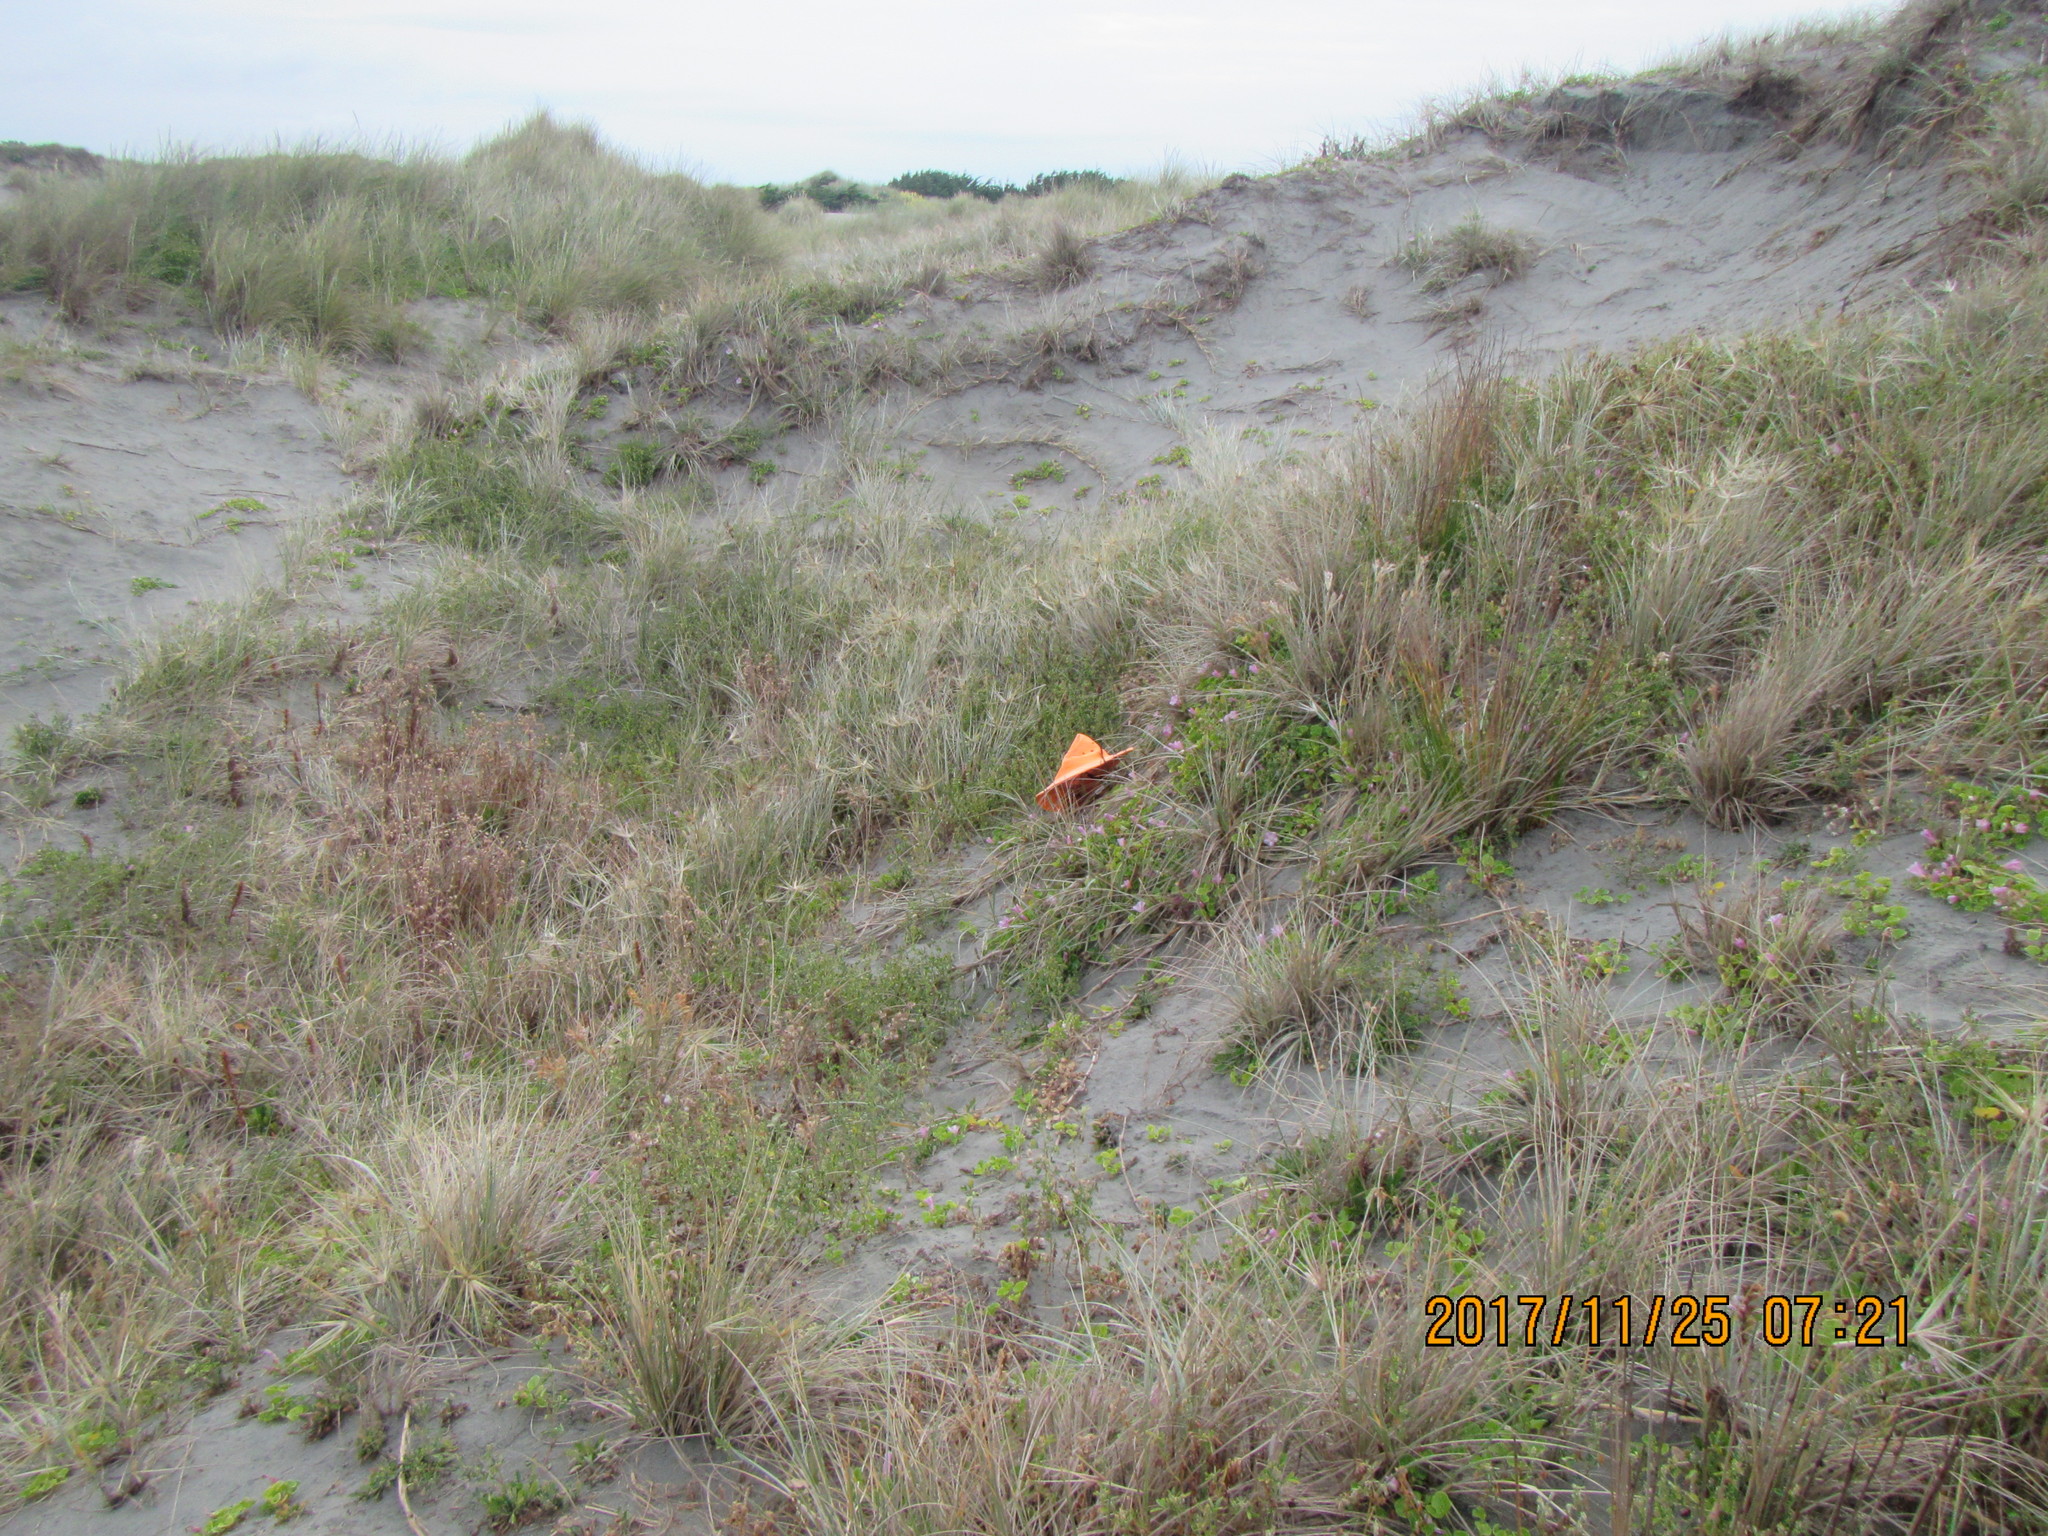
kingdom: Plantae
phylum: Tracheophyta
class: Magnoliopsida
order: Fabales
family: Fabaceae
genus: Melilotus
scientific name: Melilotus indicus
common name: Small melilot
